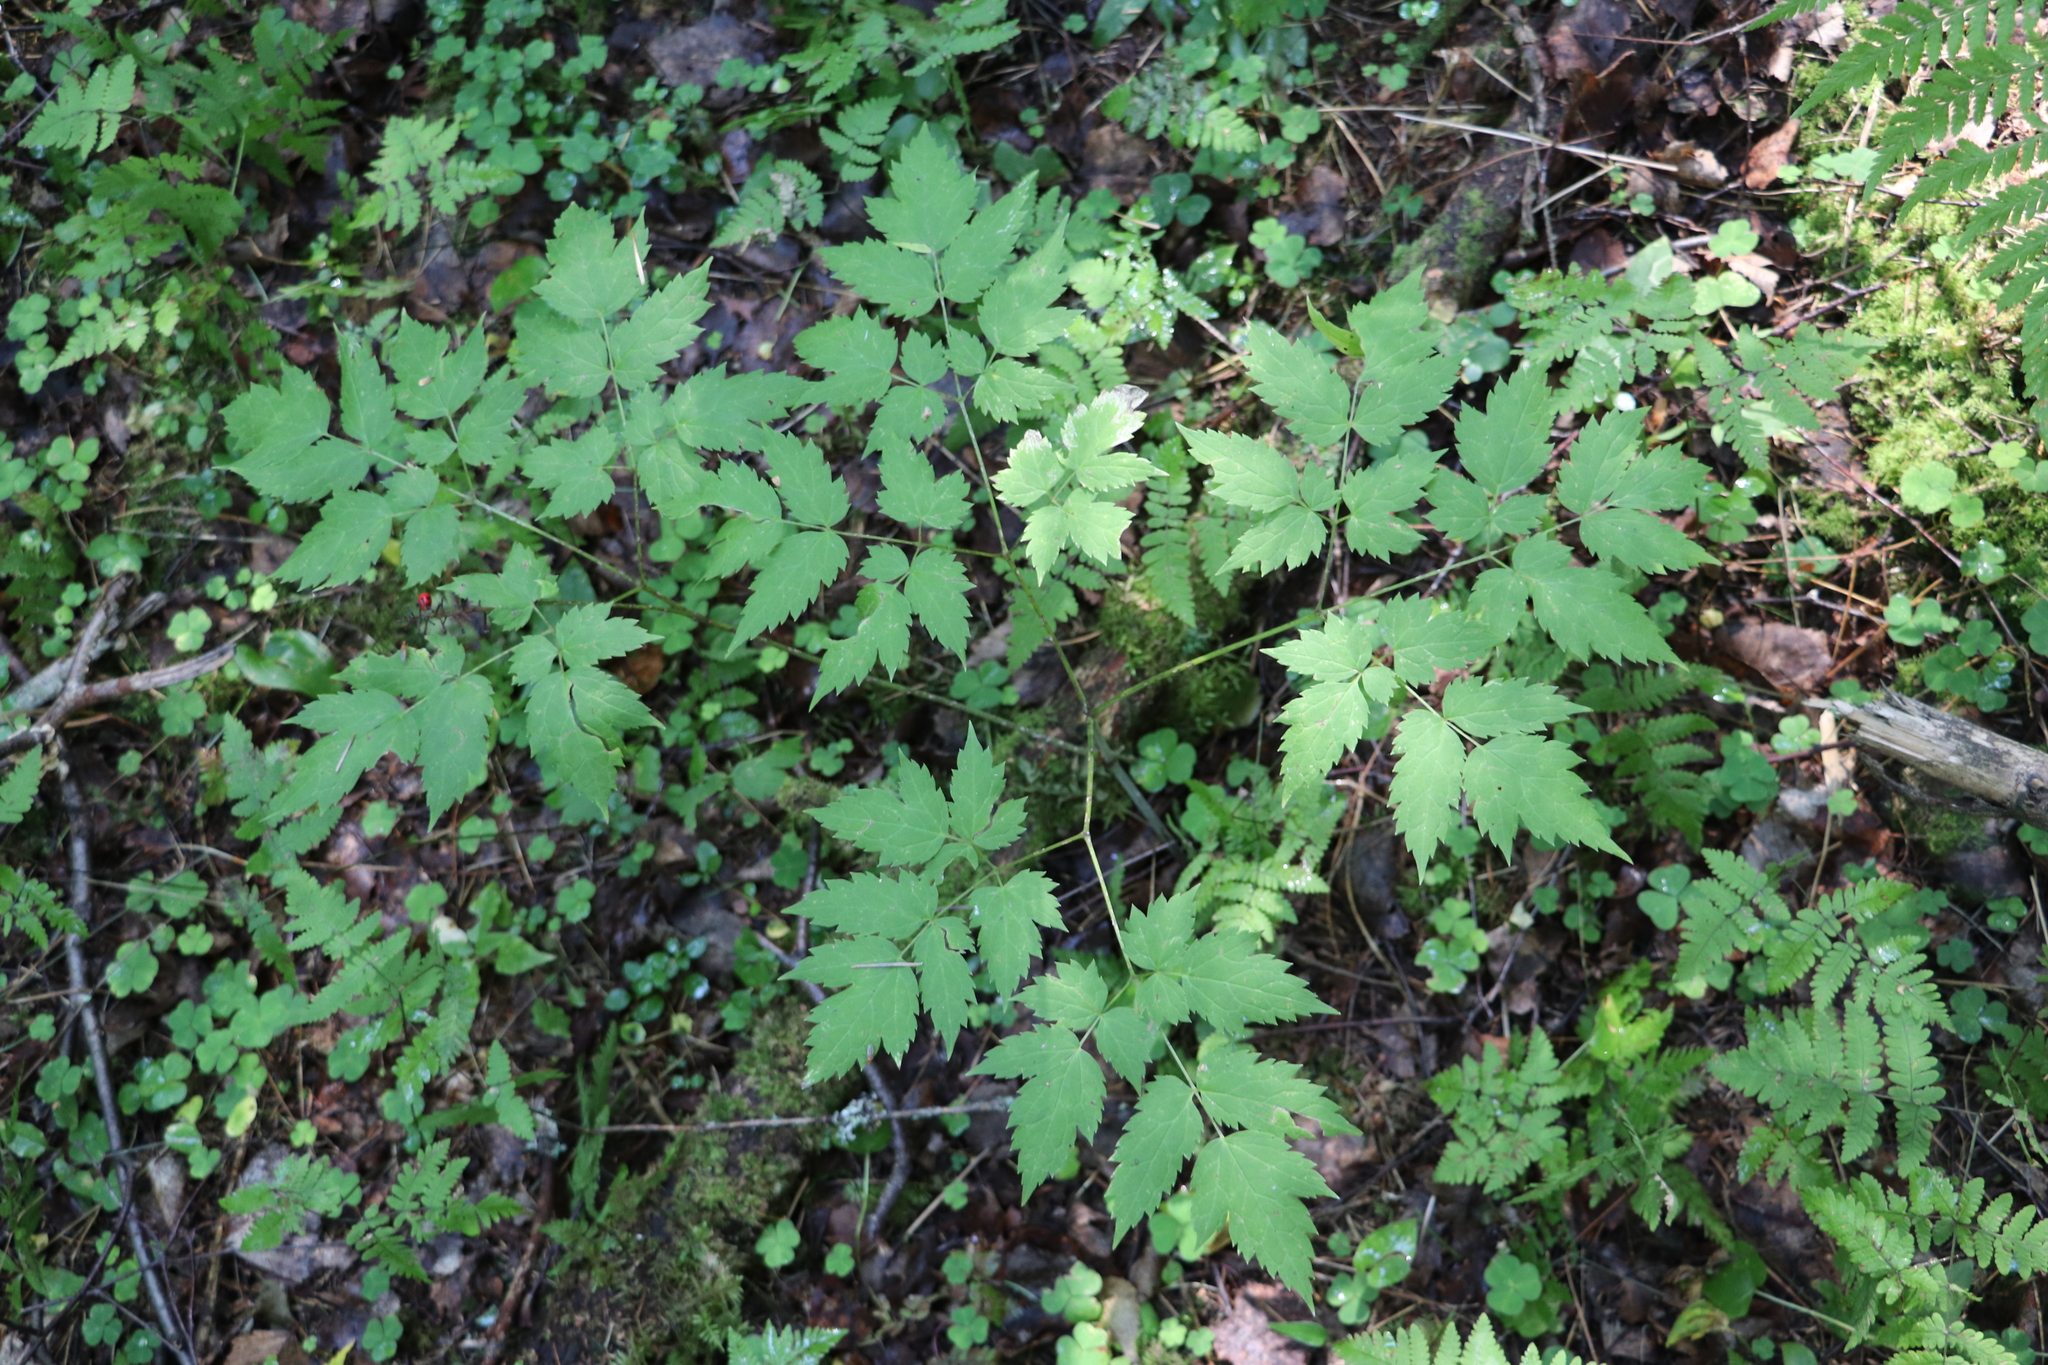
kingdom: Plantae
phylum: Tracheophyta
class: Magnoliopsida
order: Ranunculales
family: Ranunculaceae
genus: Actaea
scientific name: Actaea erythrocarpa
